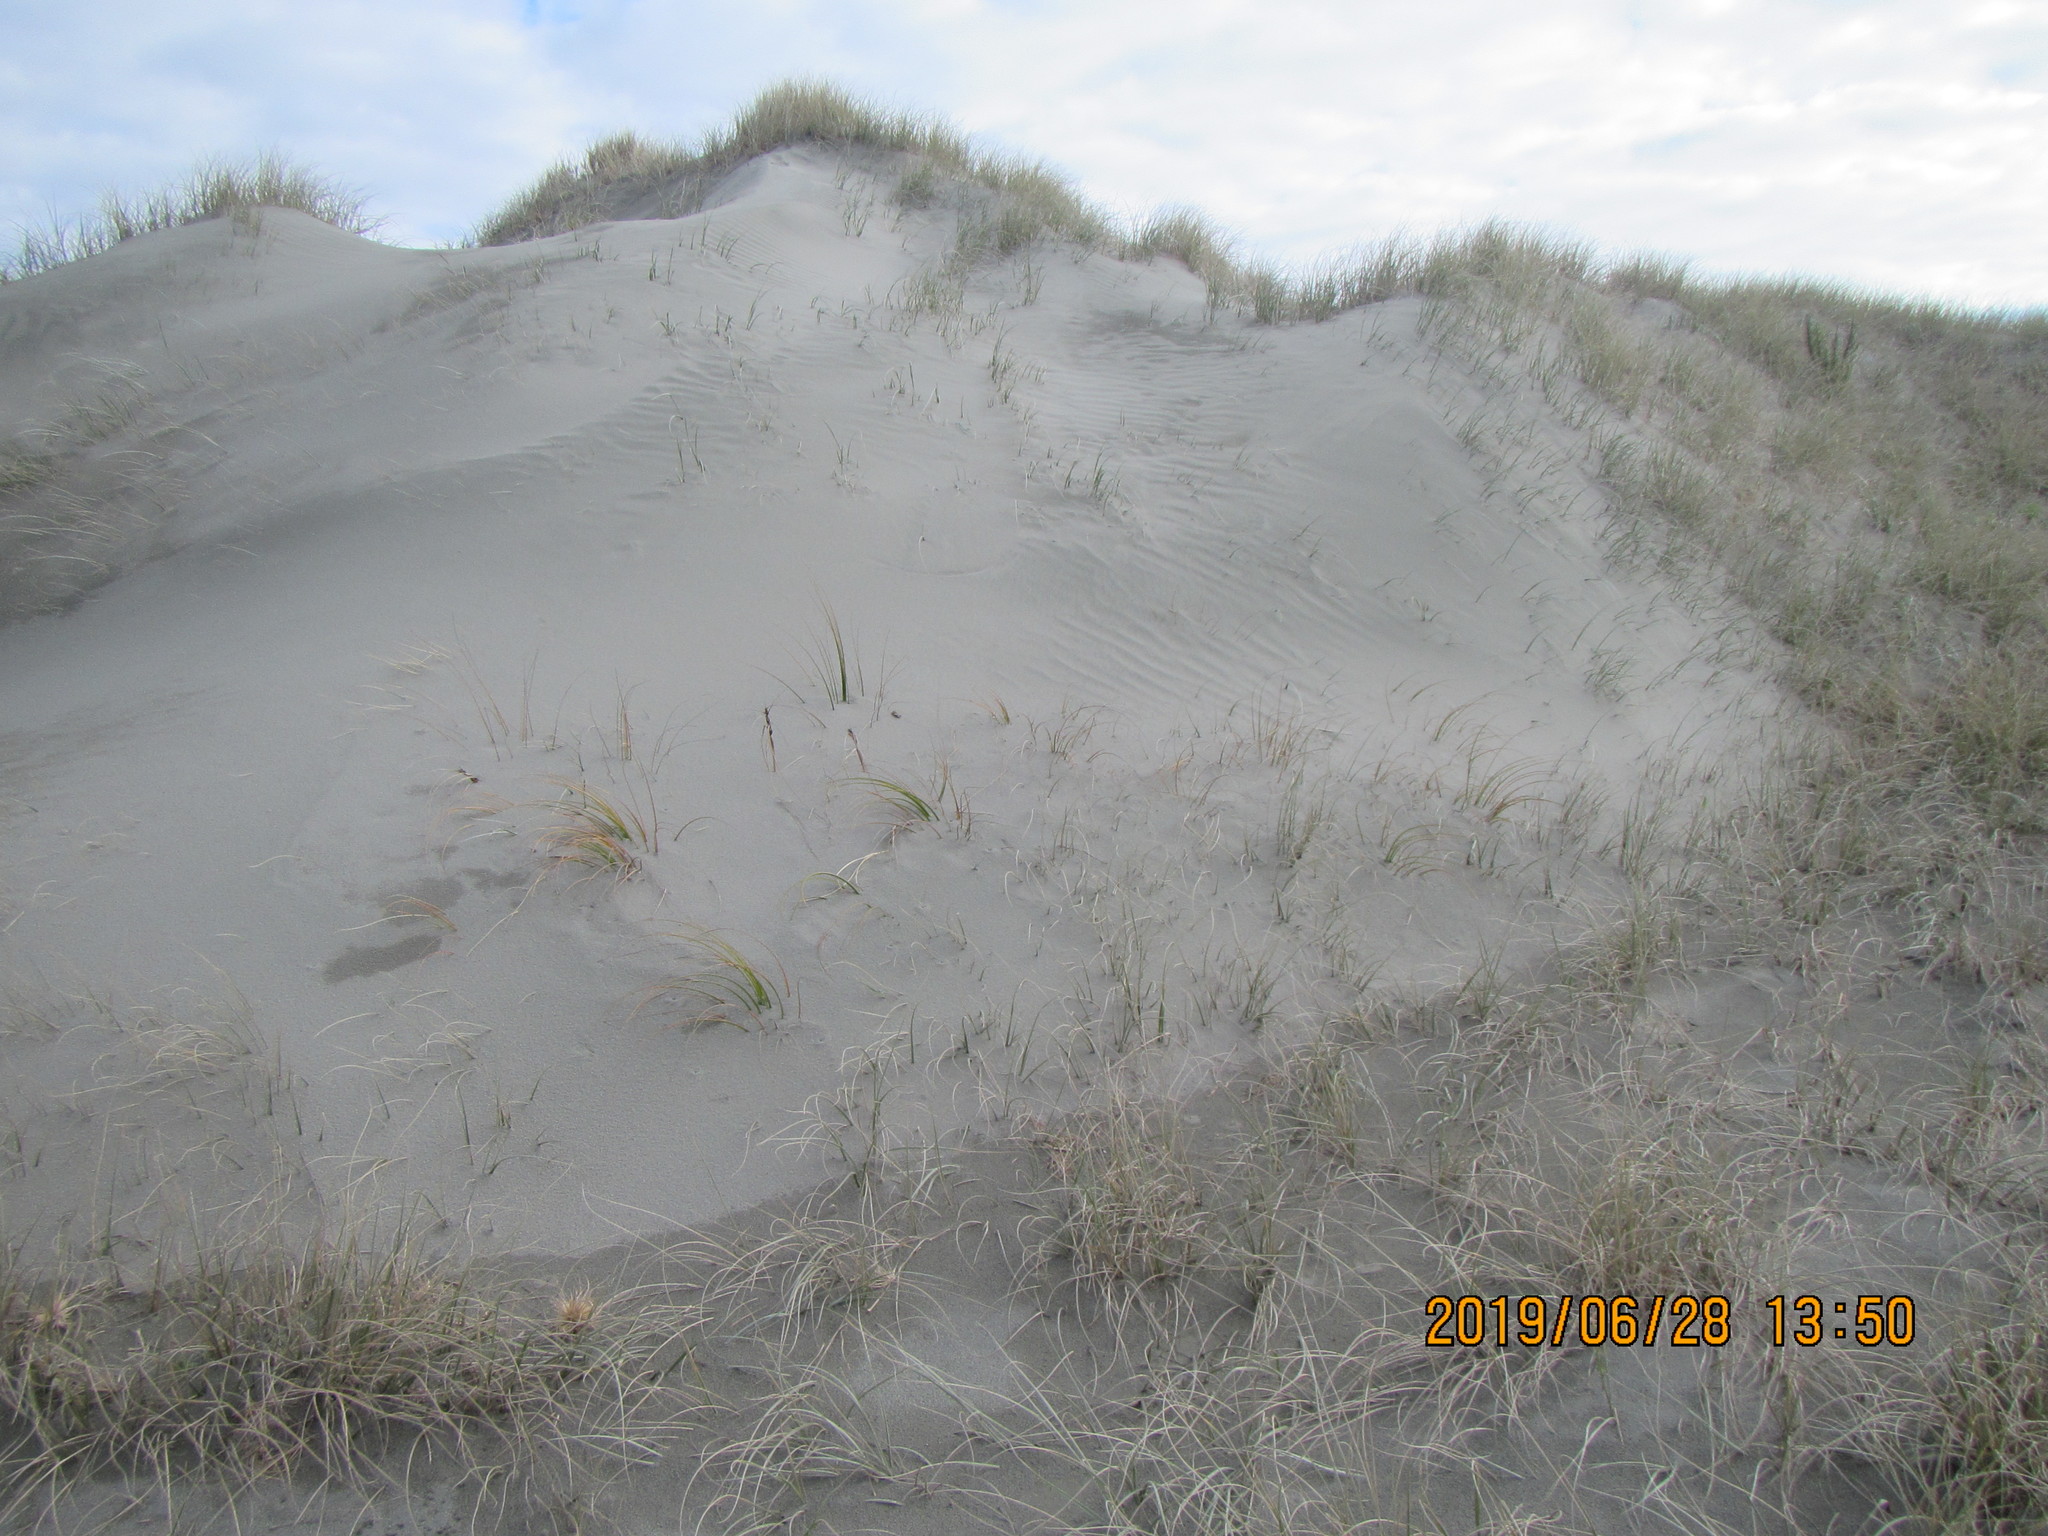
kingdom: Plantae
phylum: Tracheophyta
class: Liliopsida
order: Poales
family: Cyperaceae
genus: Ficinia
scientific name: Ficinia spiralis
